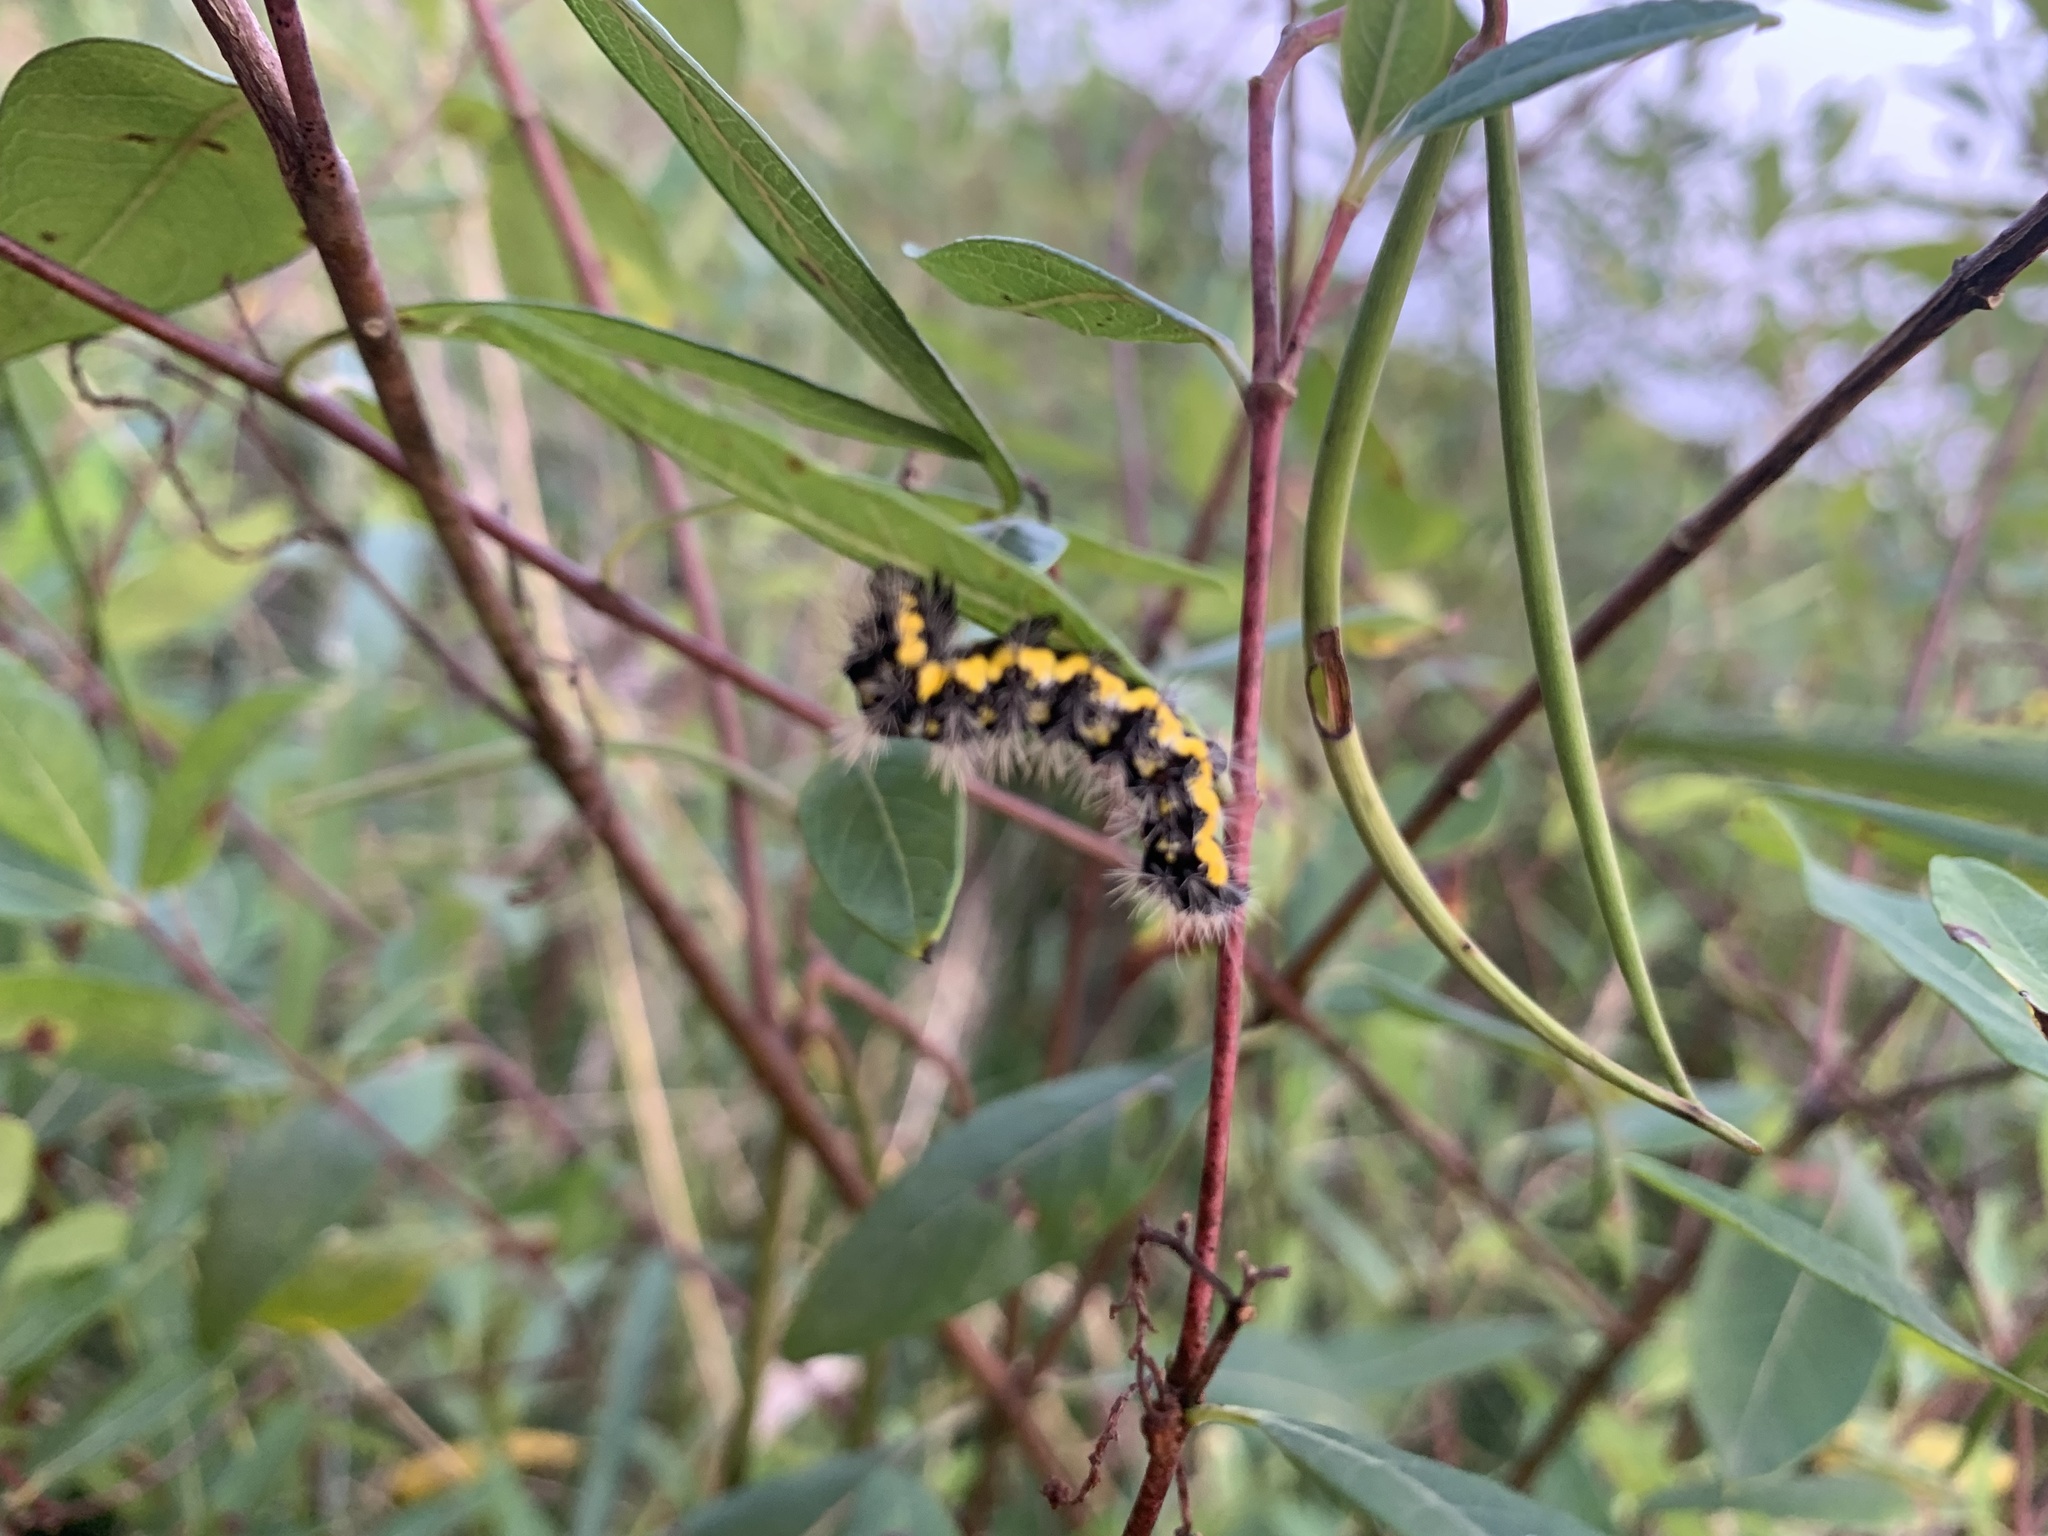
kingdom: Animalia
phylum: Arthropoda
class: Insecta
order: Lepidoptera
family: Noctuidae
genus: Acronicta
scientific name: Acronicta oblinita
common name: Smeared dagger
